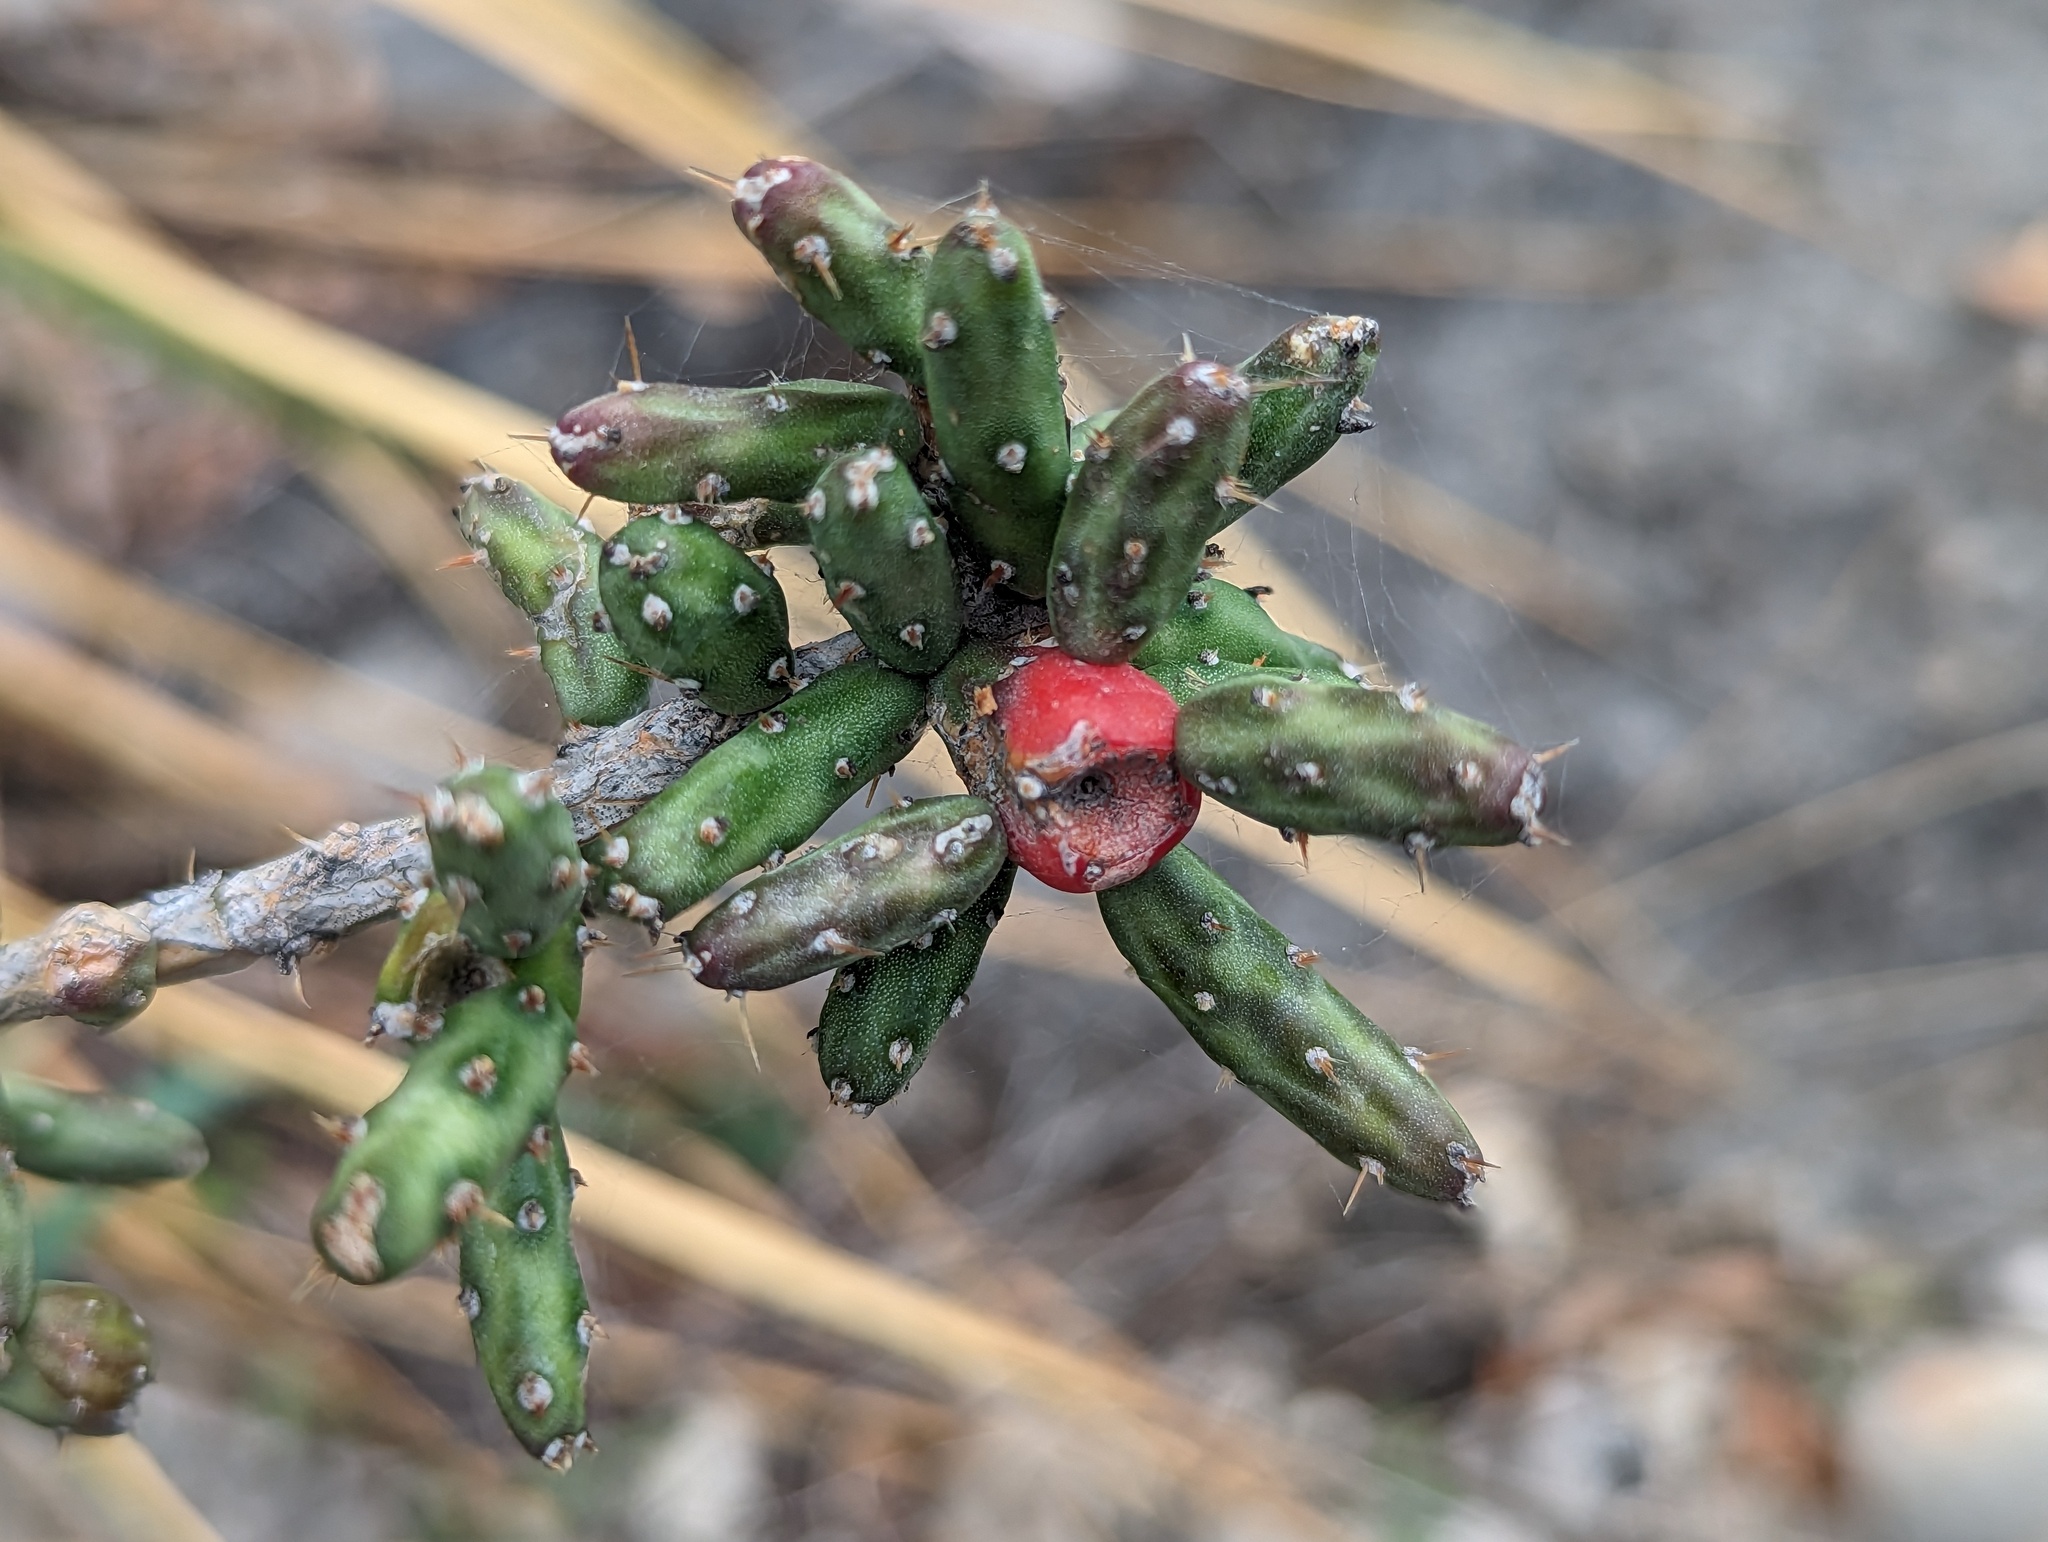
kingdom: Plantae
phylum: Tracheophyta
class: Magnoliopsida
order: Caryophyllales
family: Cactaceae
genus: Cylindropuntia
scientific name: Cylindropuntia leptocaulis
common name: Christmas cactus
